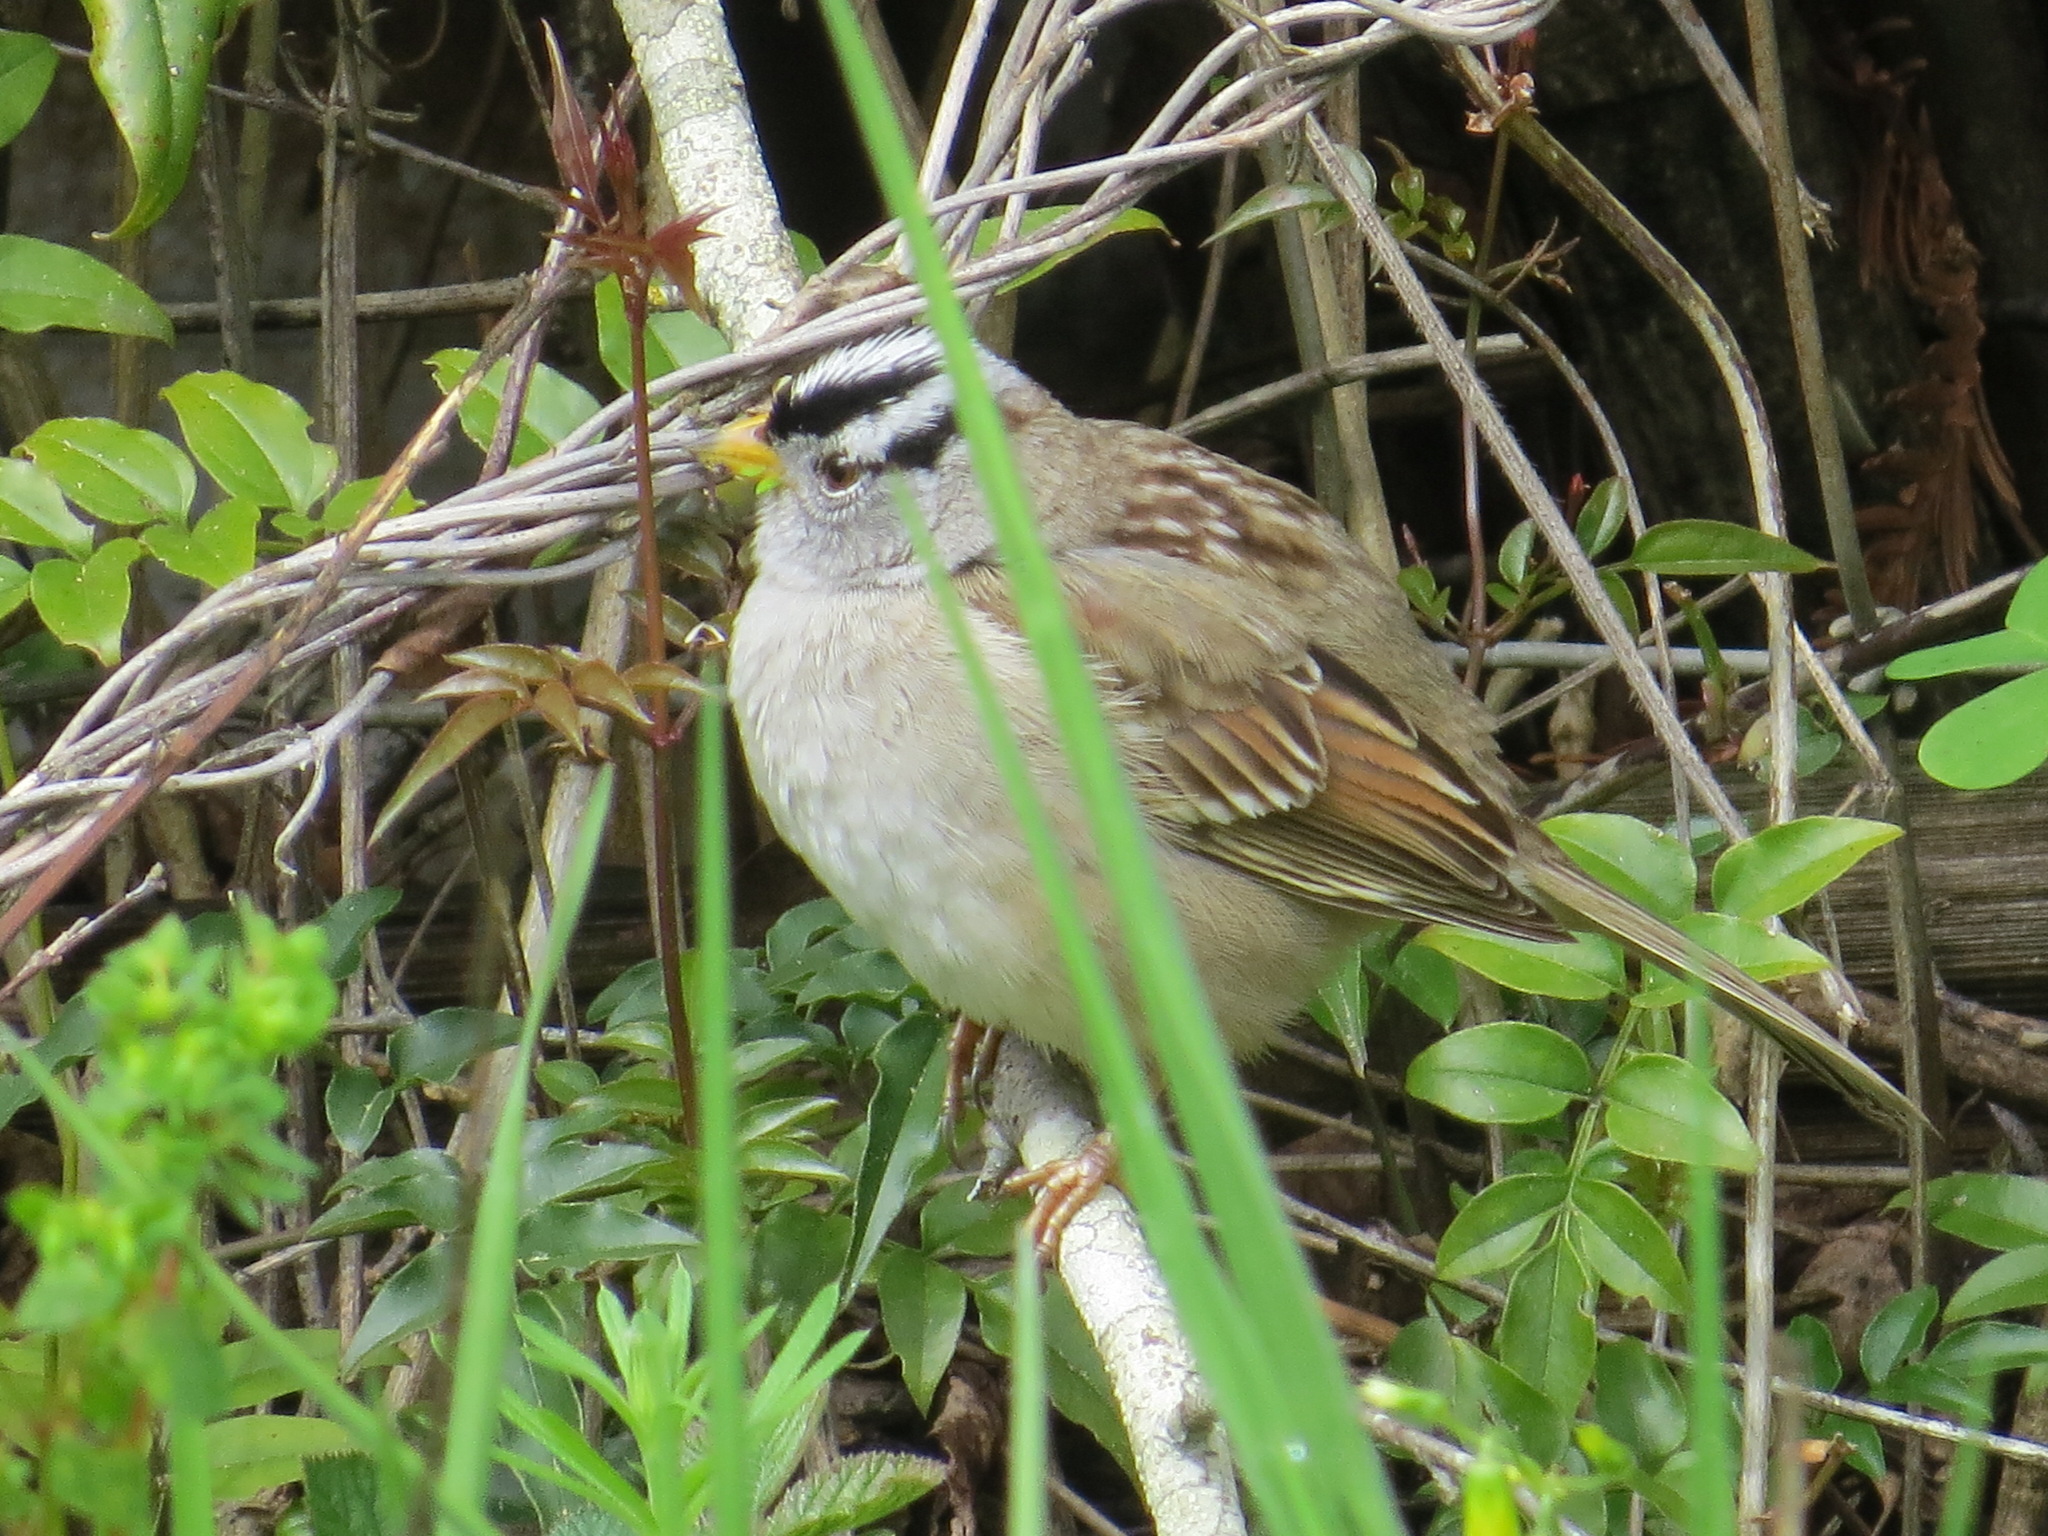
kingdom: Animalia
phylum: Chordata
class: Aves
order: Passeriformes
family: Passerellidae
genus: Zonotrichia
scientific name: Zonotrichia leucophrys
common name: White-crowned sparrow
